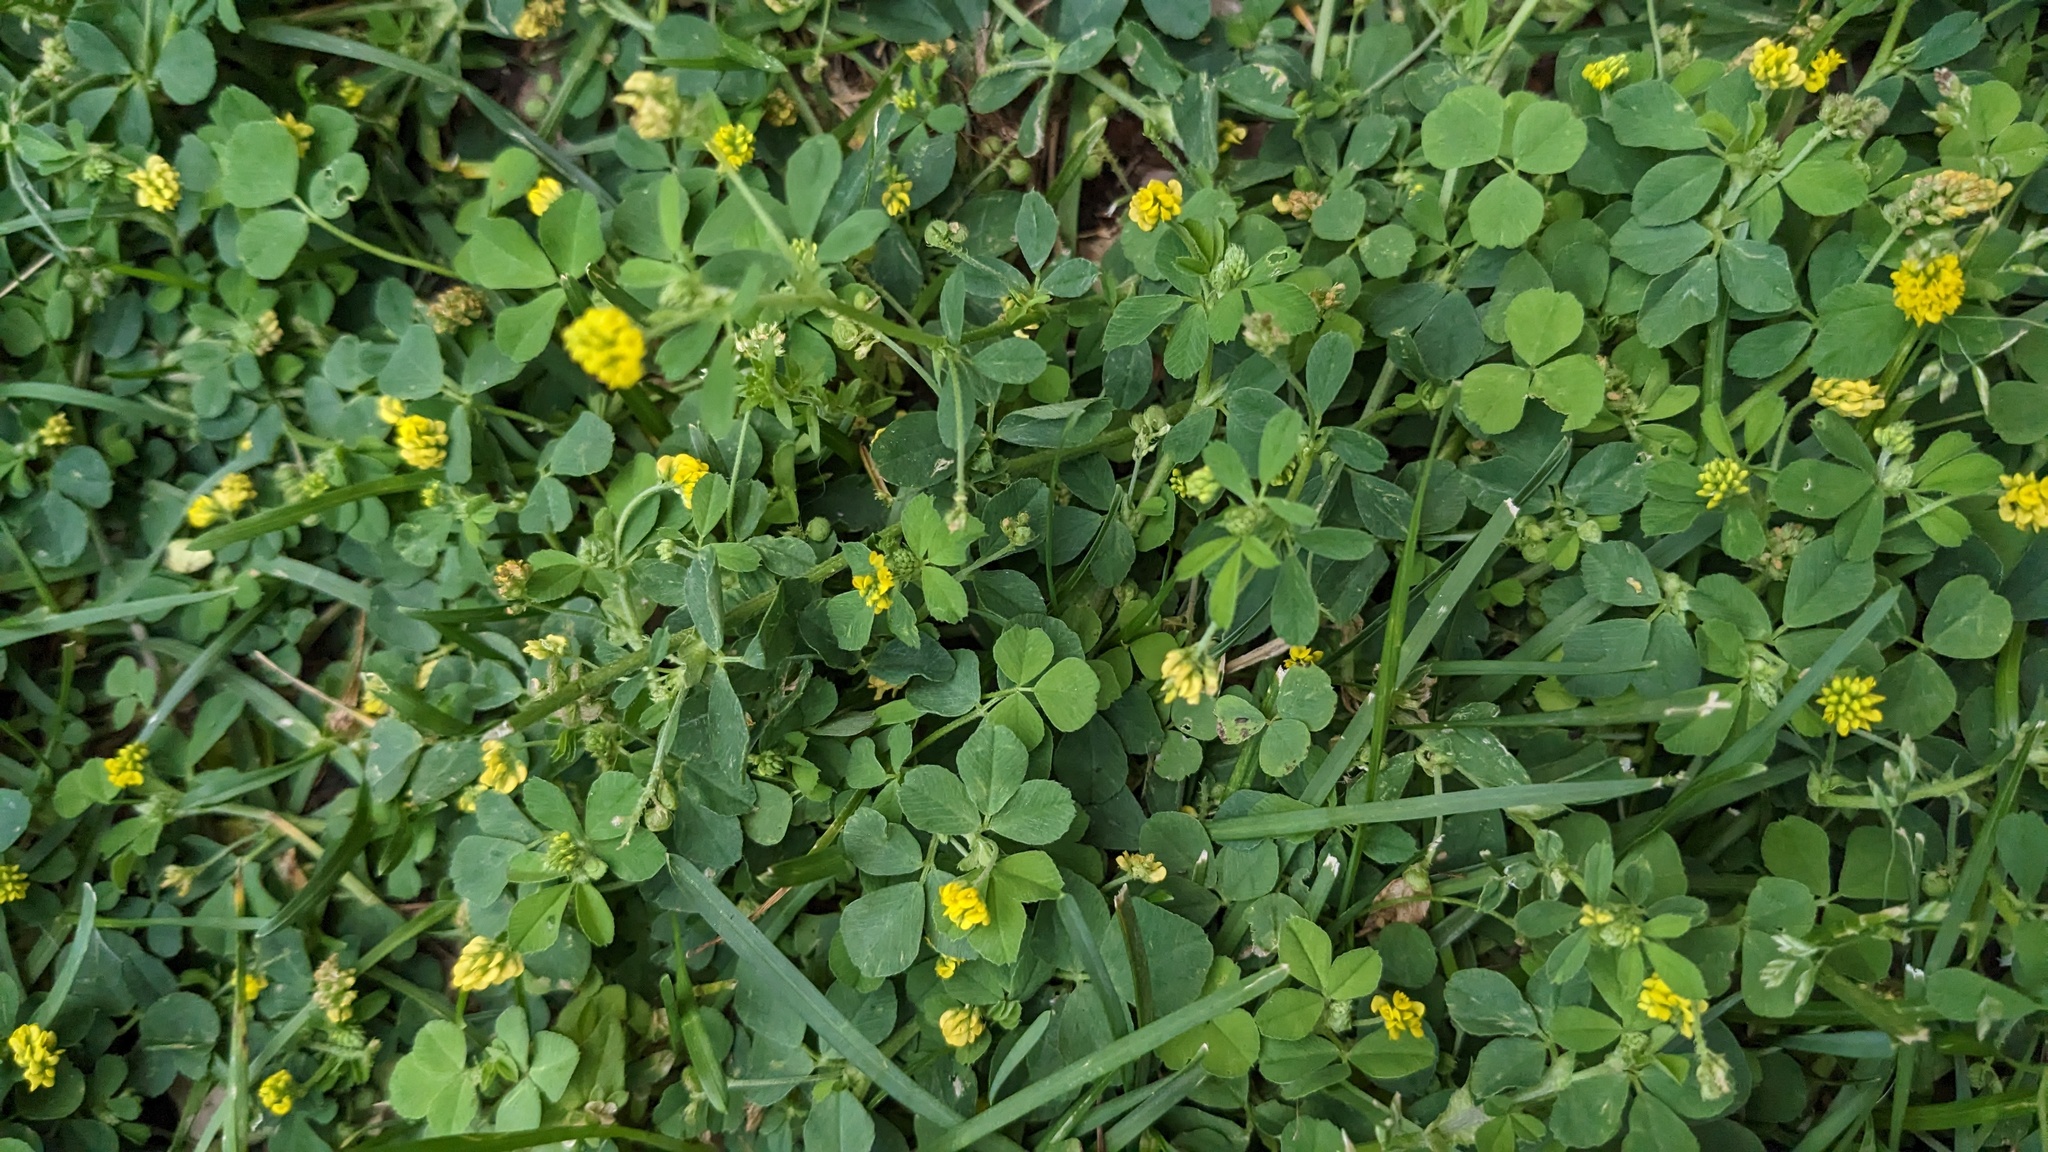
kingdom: Plantae
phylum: Tracheophyta
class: Magnoliopsida
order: Fabales
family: Fabaceae
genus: Medicago
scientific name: Medicago lupulina
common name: Black medick
